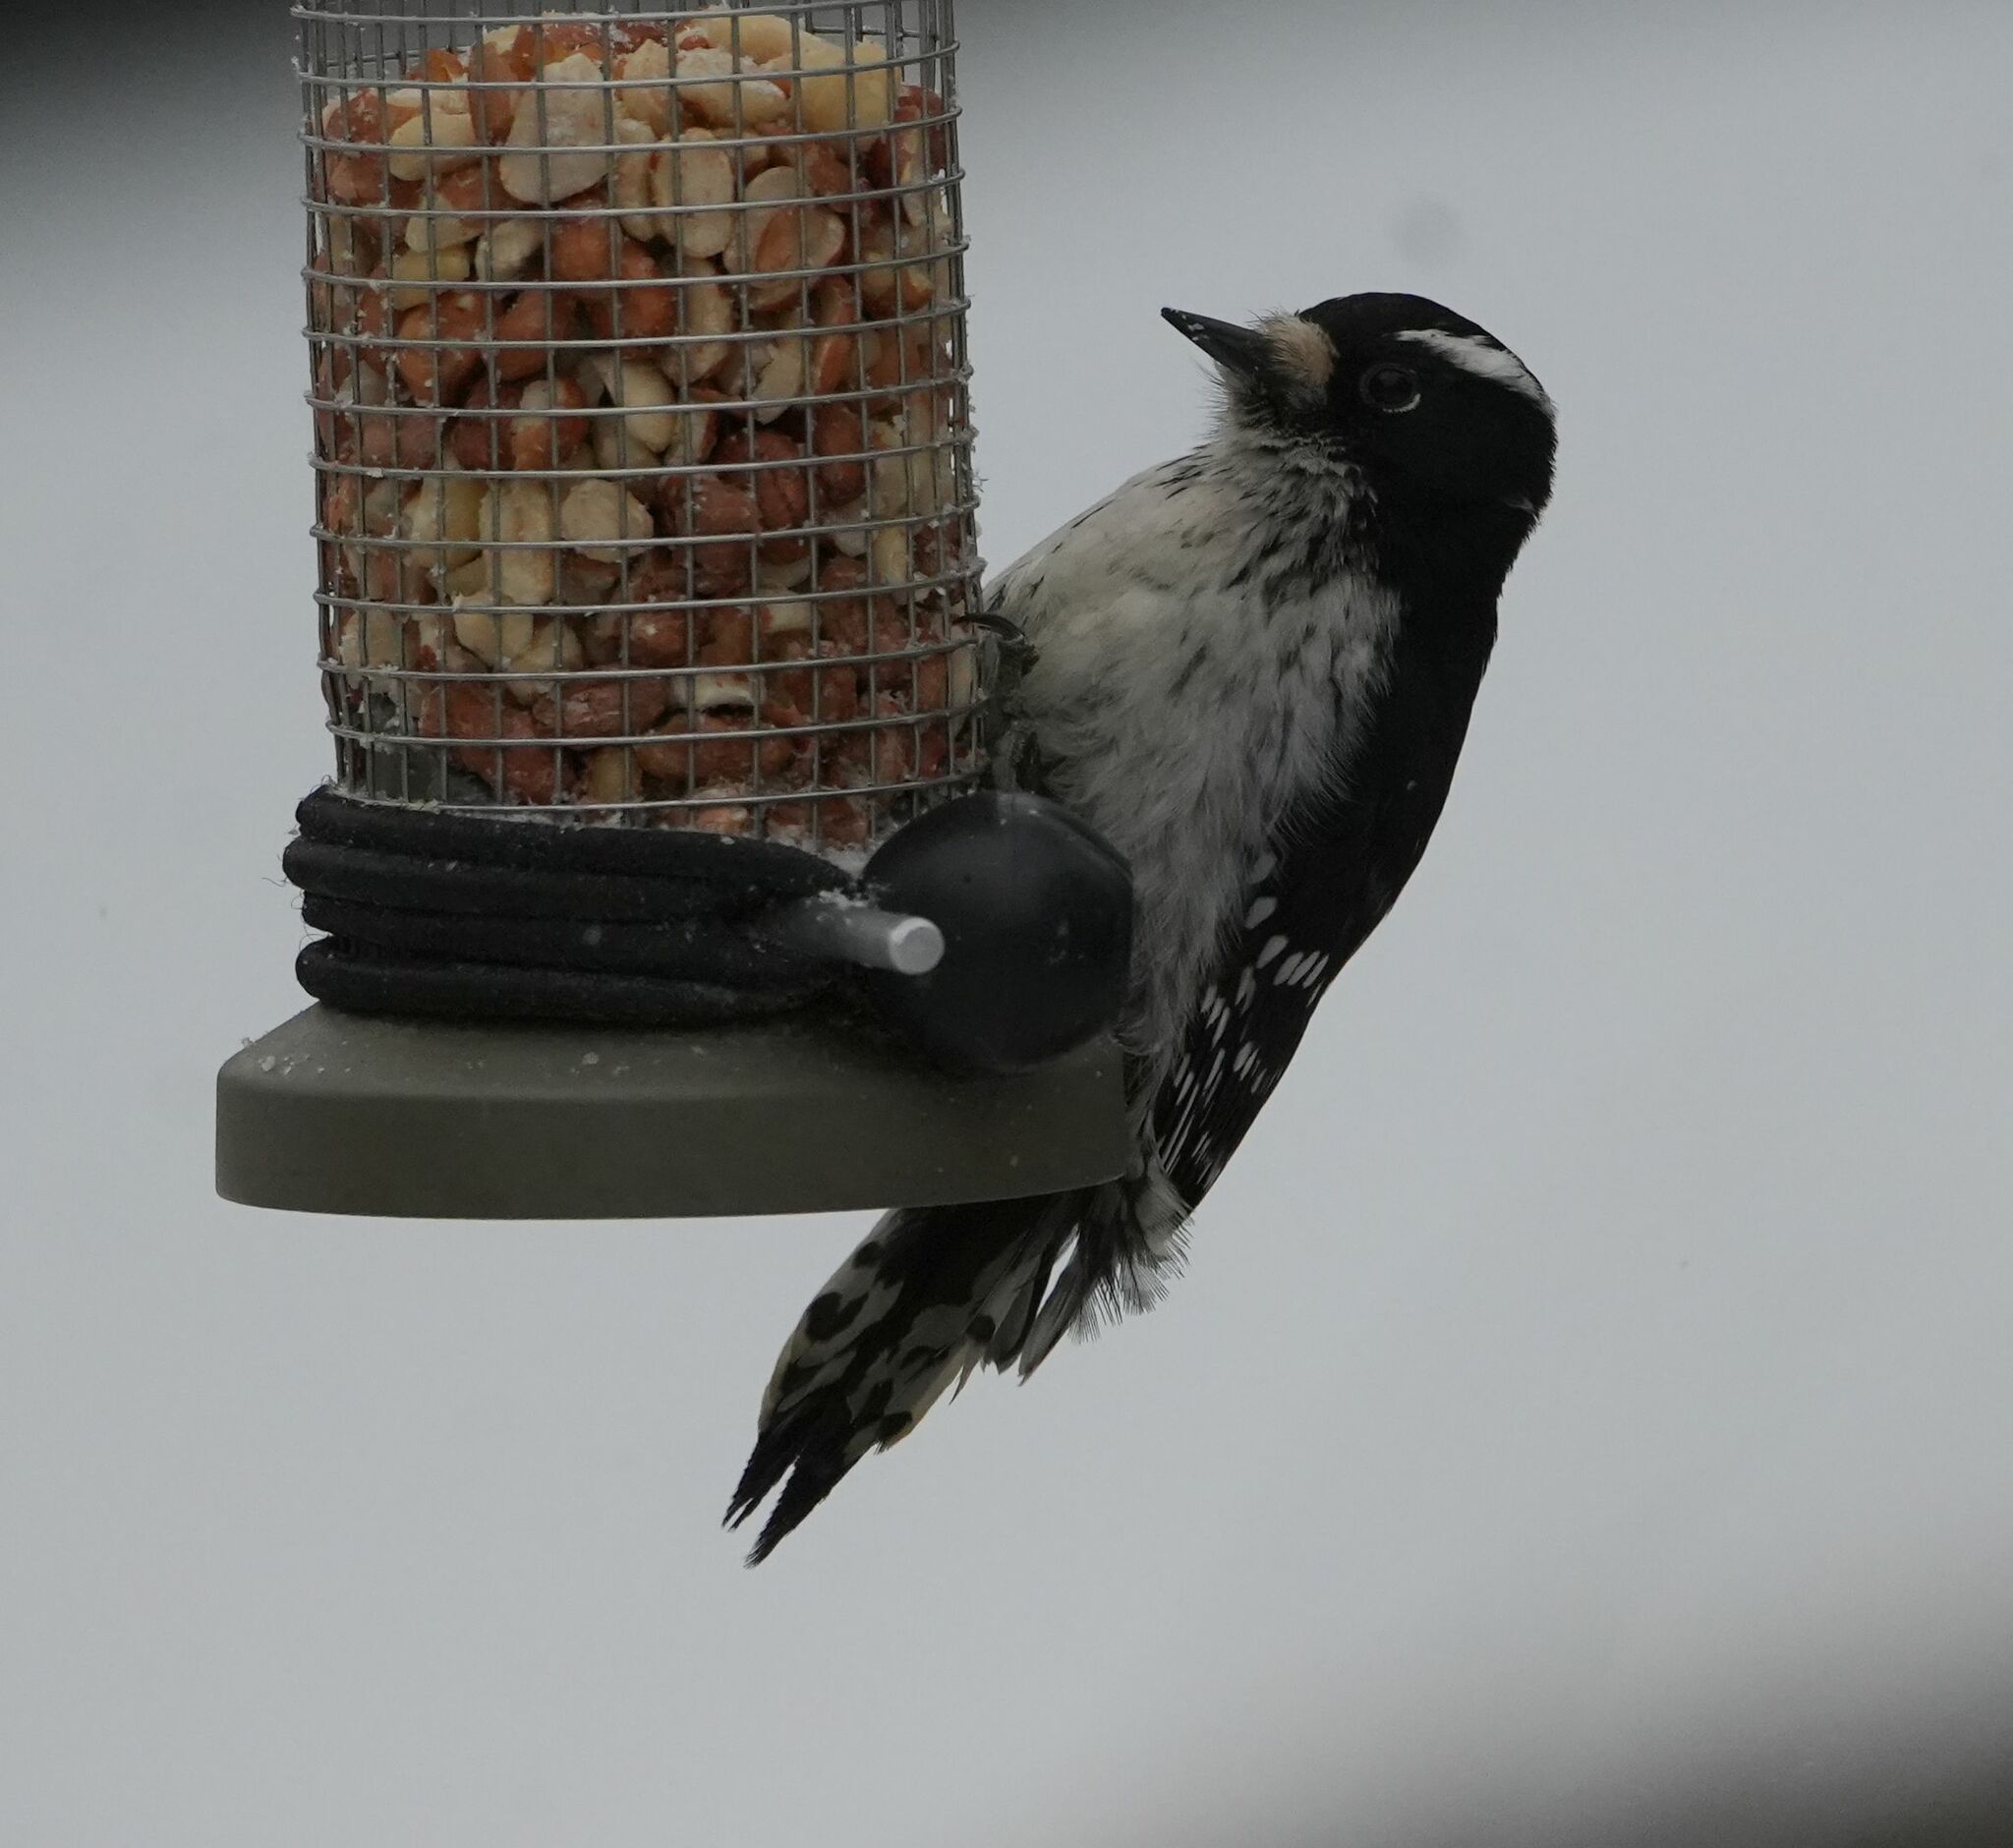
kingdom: Animalia
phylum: Chordata
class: Aves
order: Piciformes
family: Picidae
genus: Dryobates
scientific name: Dryobates pubescens
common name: Downy woodpecker
